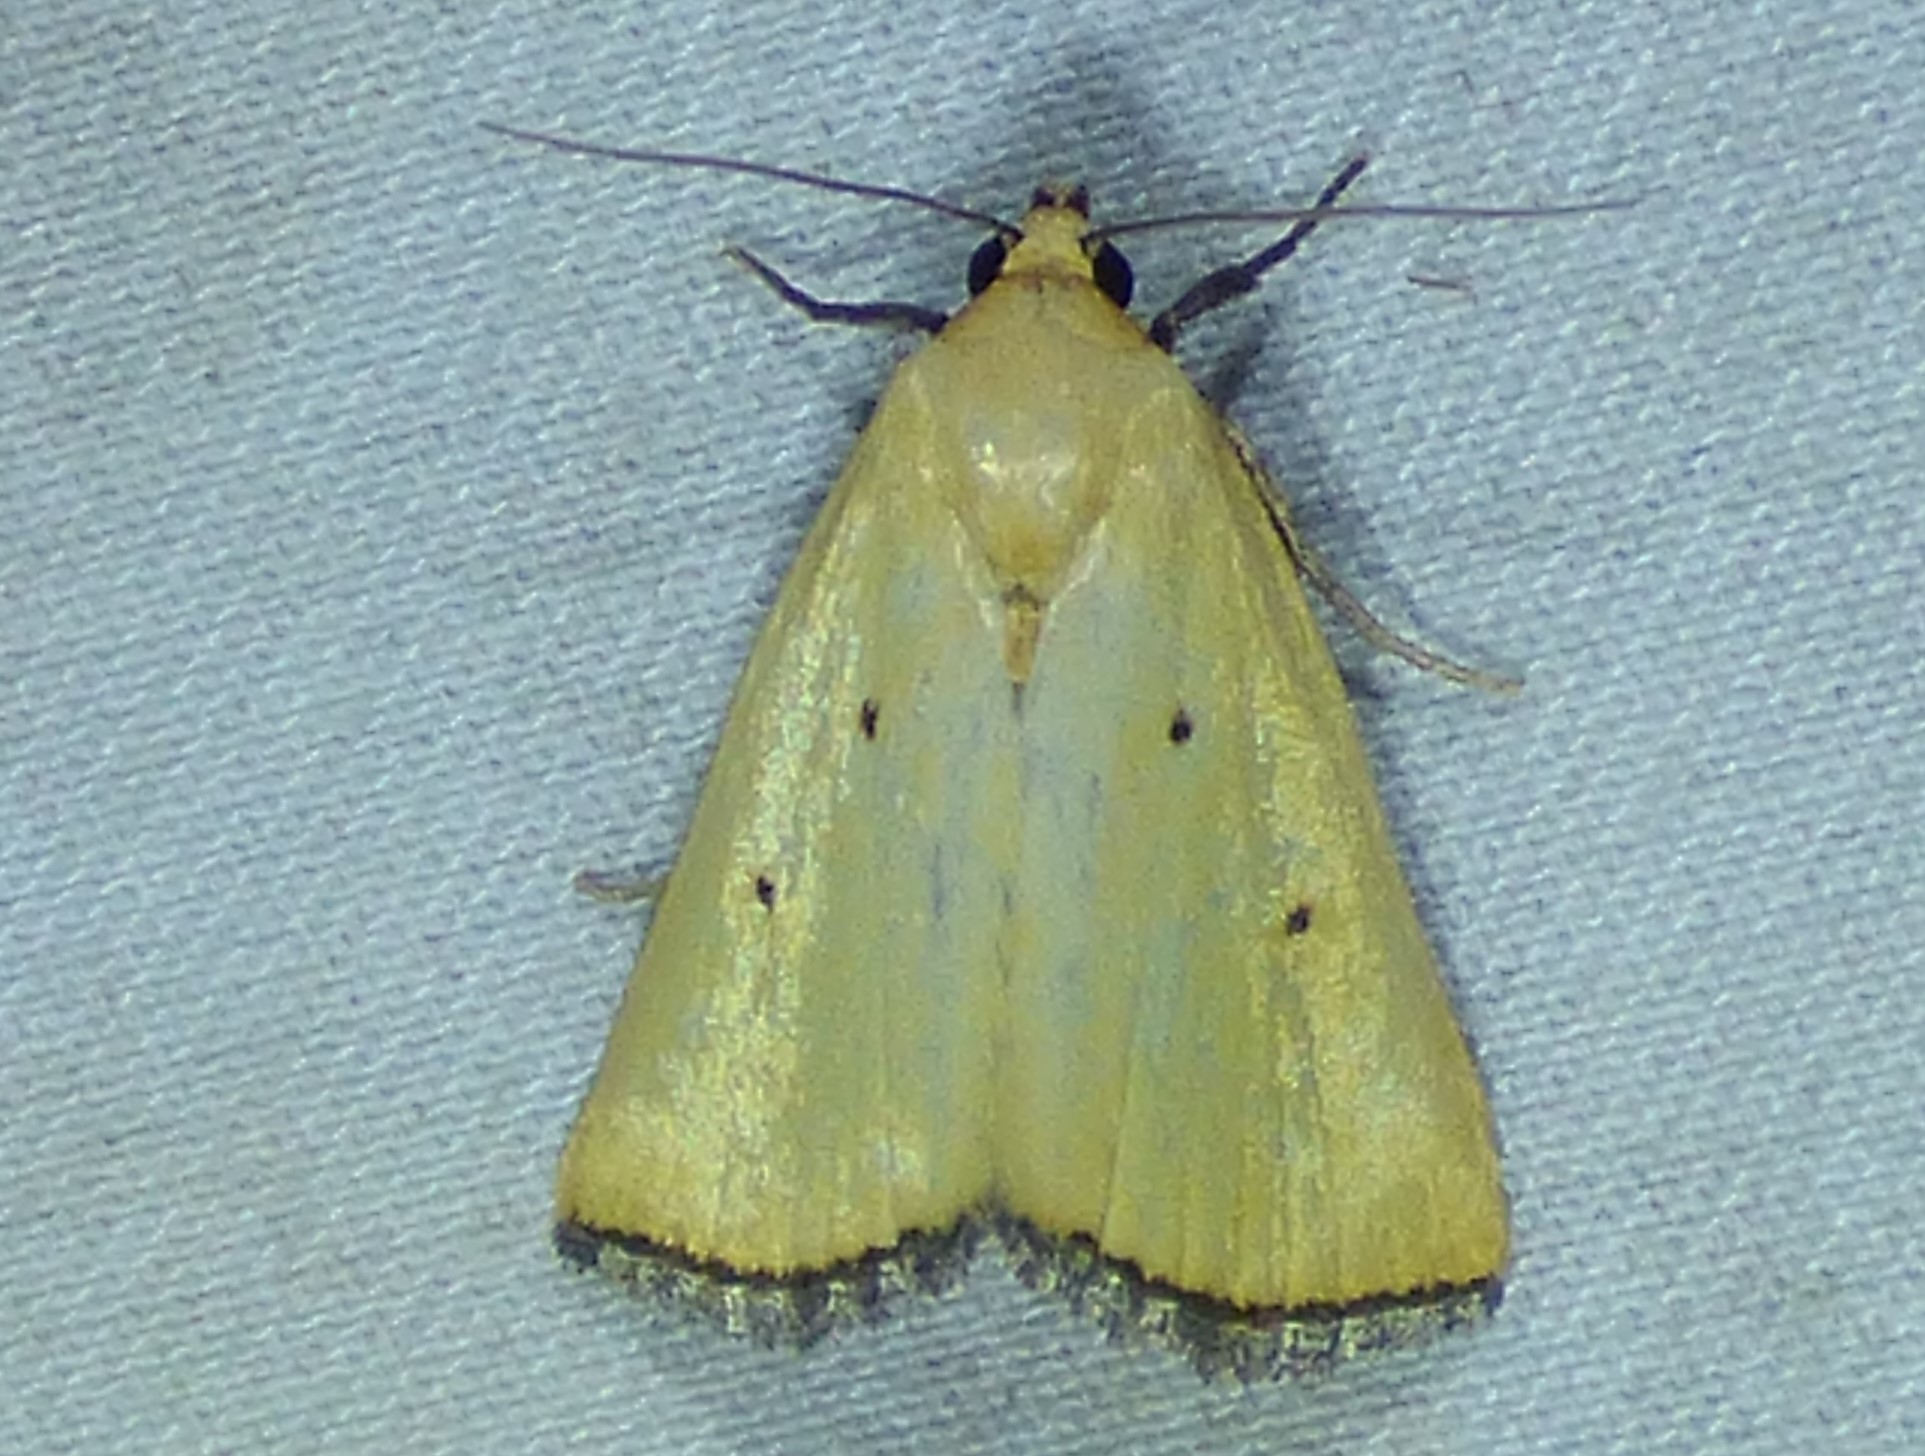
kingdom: Animalia
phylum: Arthropoda
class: Insecta
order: Lepidoptera
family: Noctuidae
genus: Marimatha
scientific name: Marimatha nigrofimbria
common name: Black-bordered lemon moth
